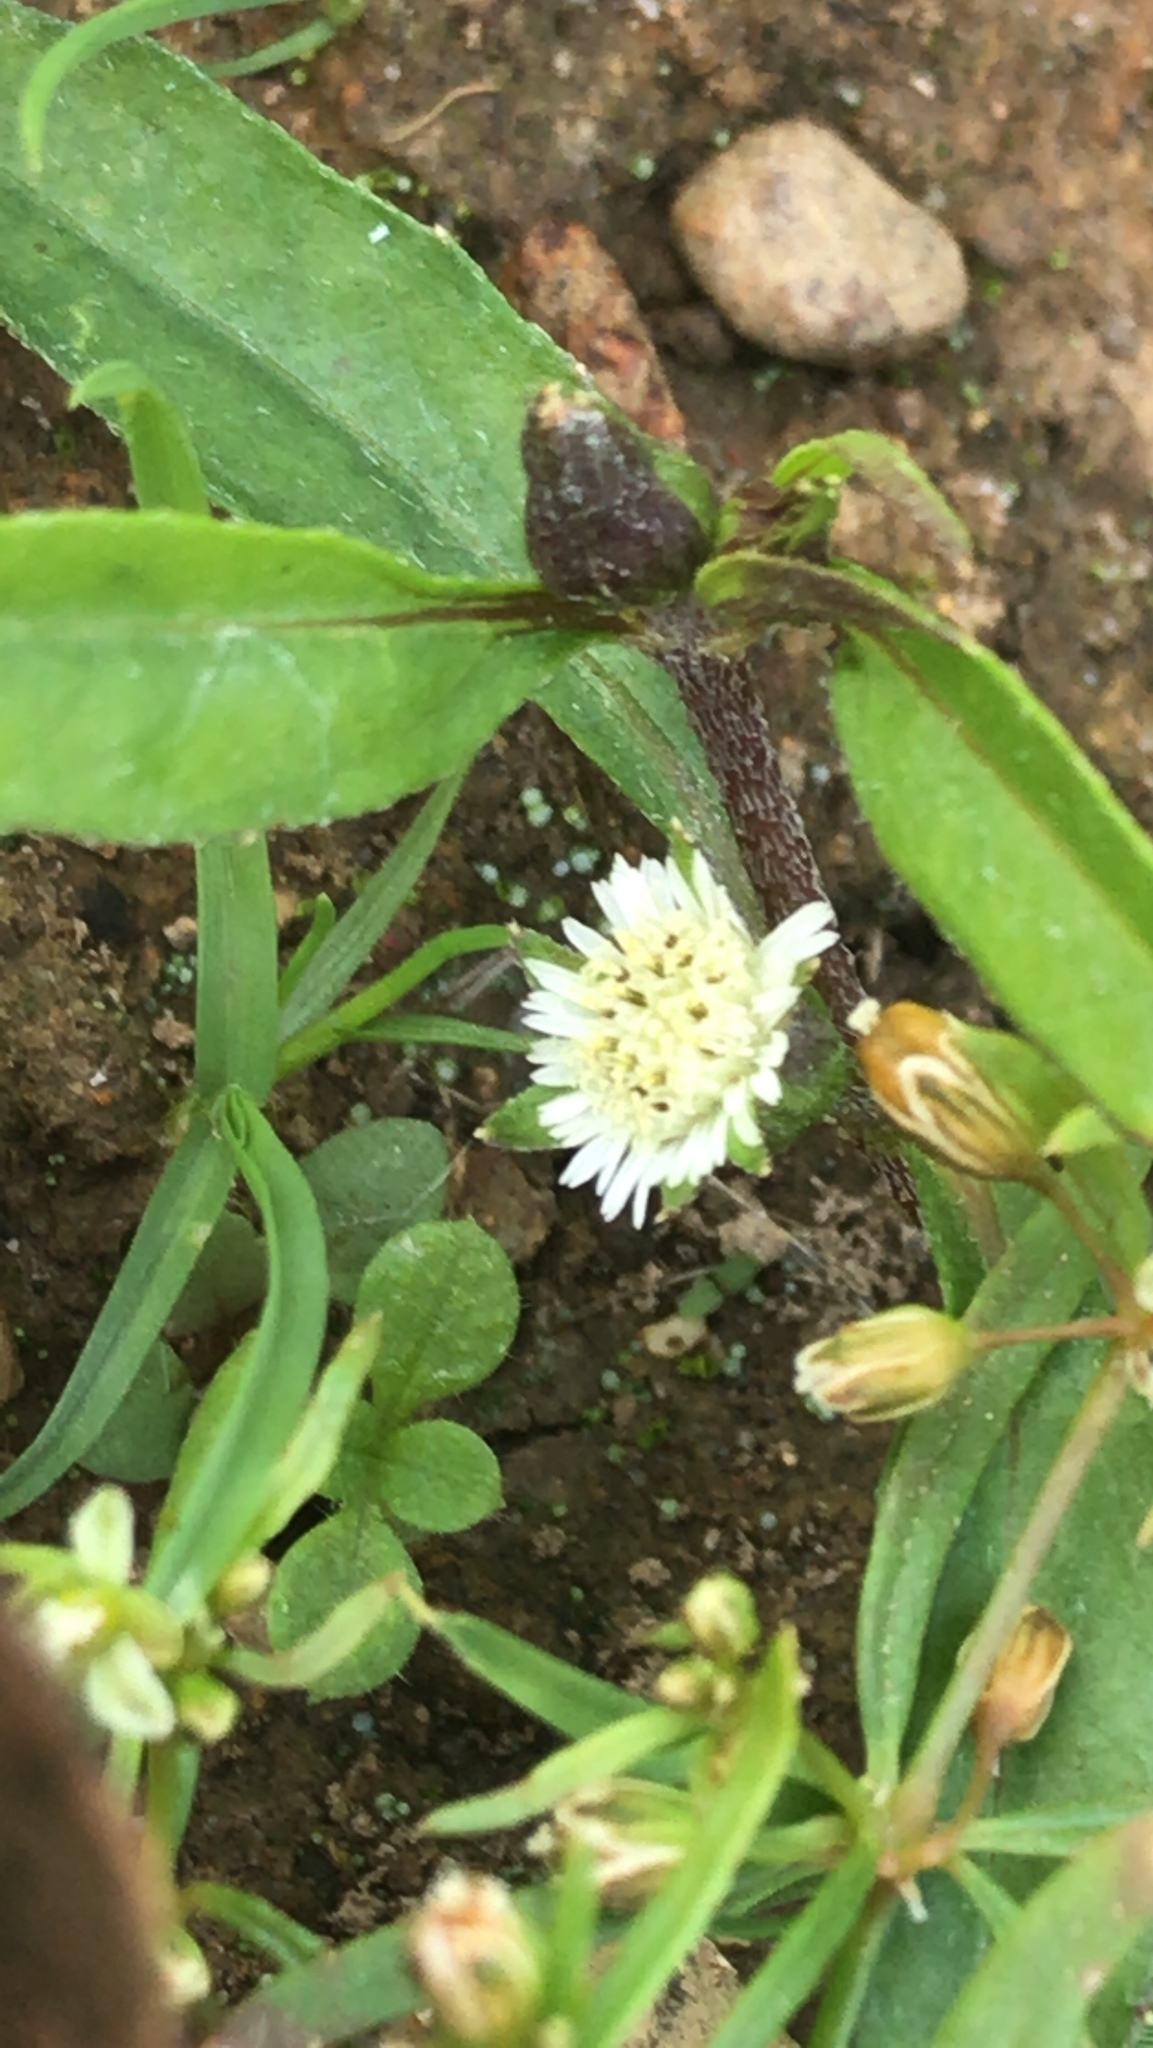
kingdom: Plantae
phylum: Tracheophyta
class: Magnoliopsida
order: Asterales
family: Asteraceae
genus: Eclipta
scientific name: Eclipta prostrata
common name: False daisy
